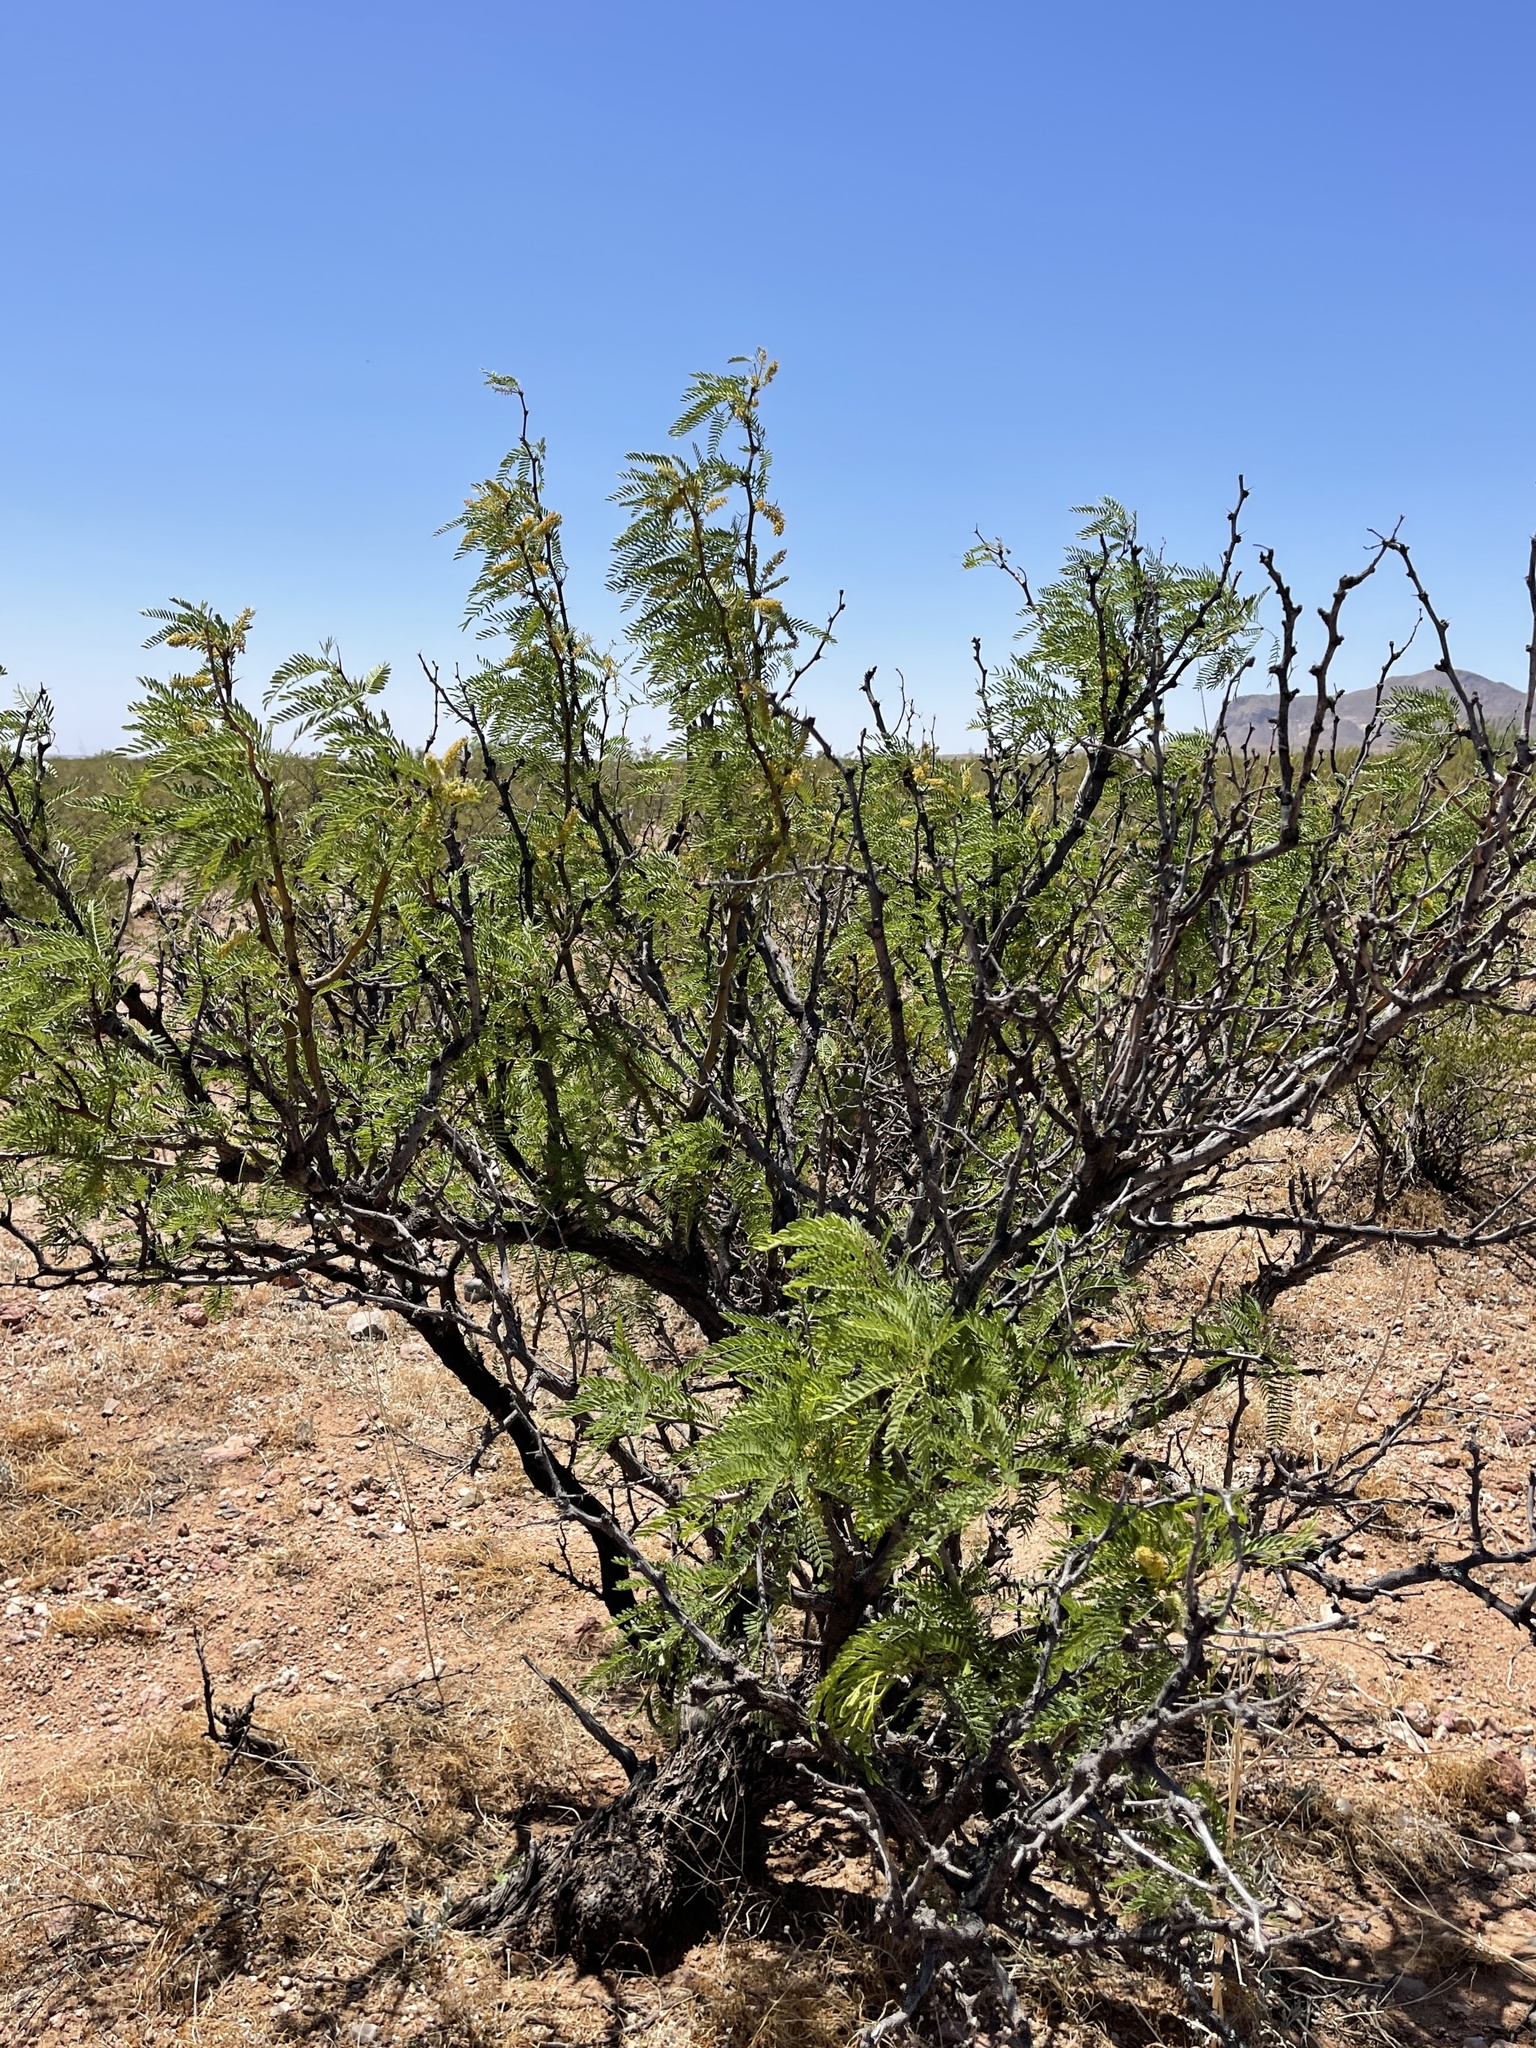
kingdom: Plantae
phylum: Tracheophyta
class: Magnoliopsida
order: Fabales
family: Fabaceae
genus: Prosopis
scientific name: Prosopis pubescens
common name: Screw-bean
